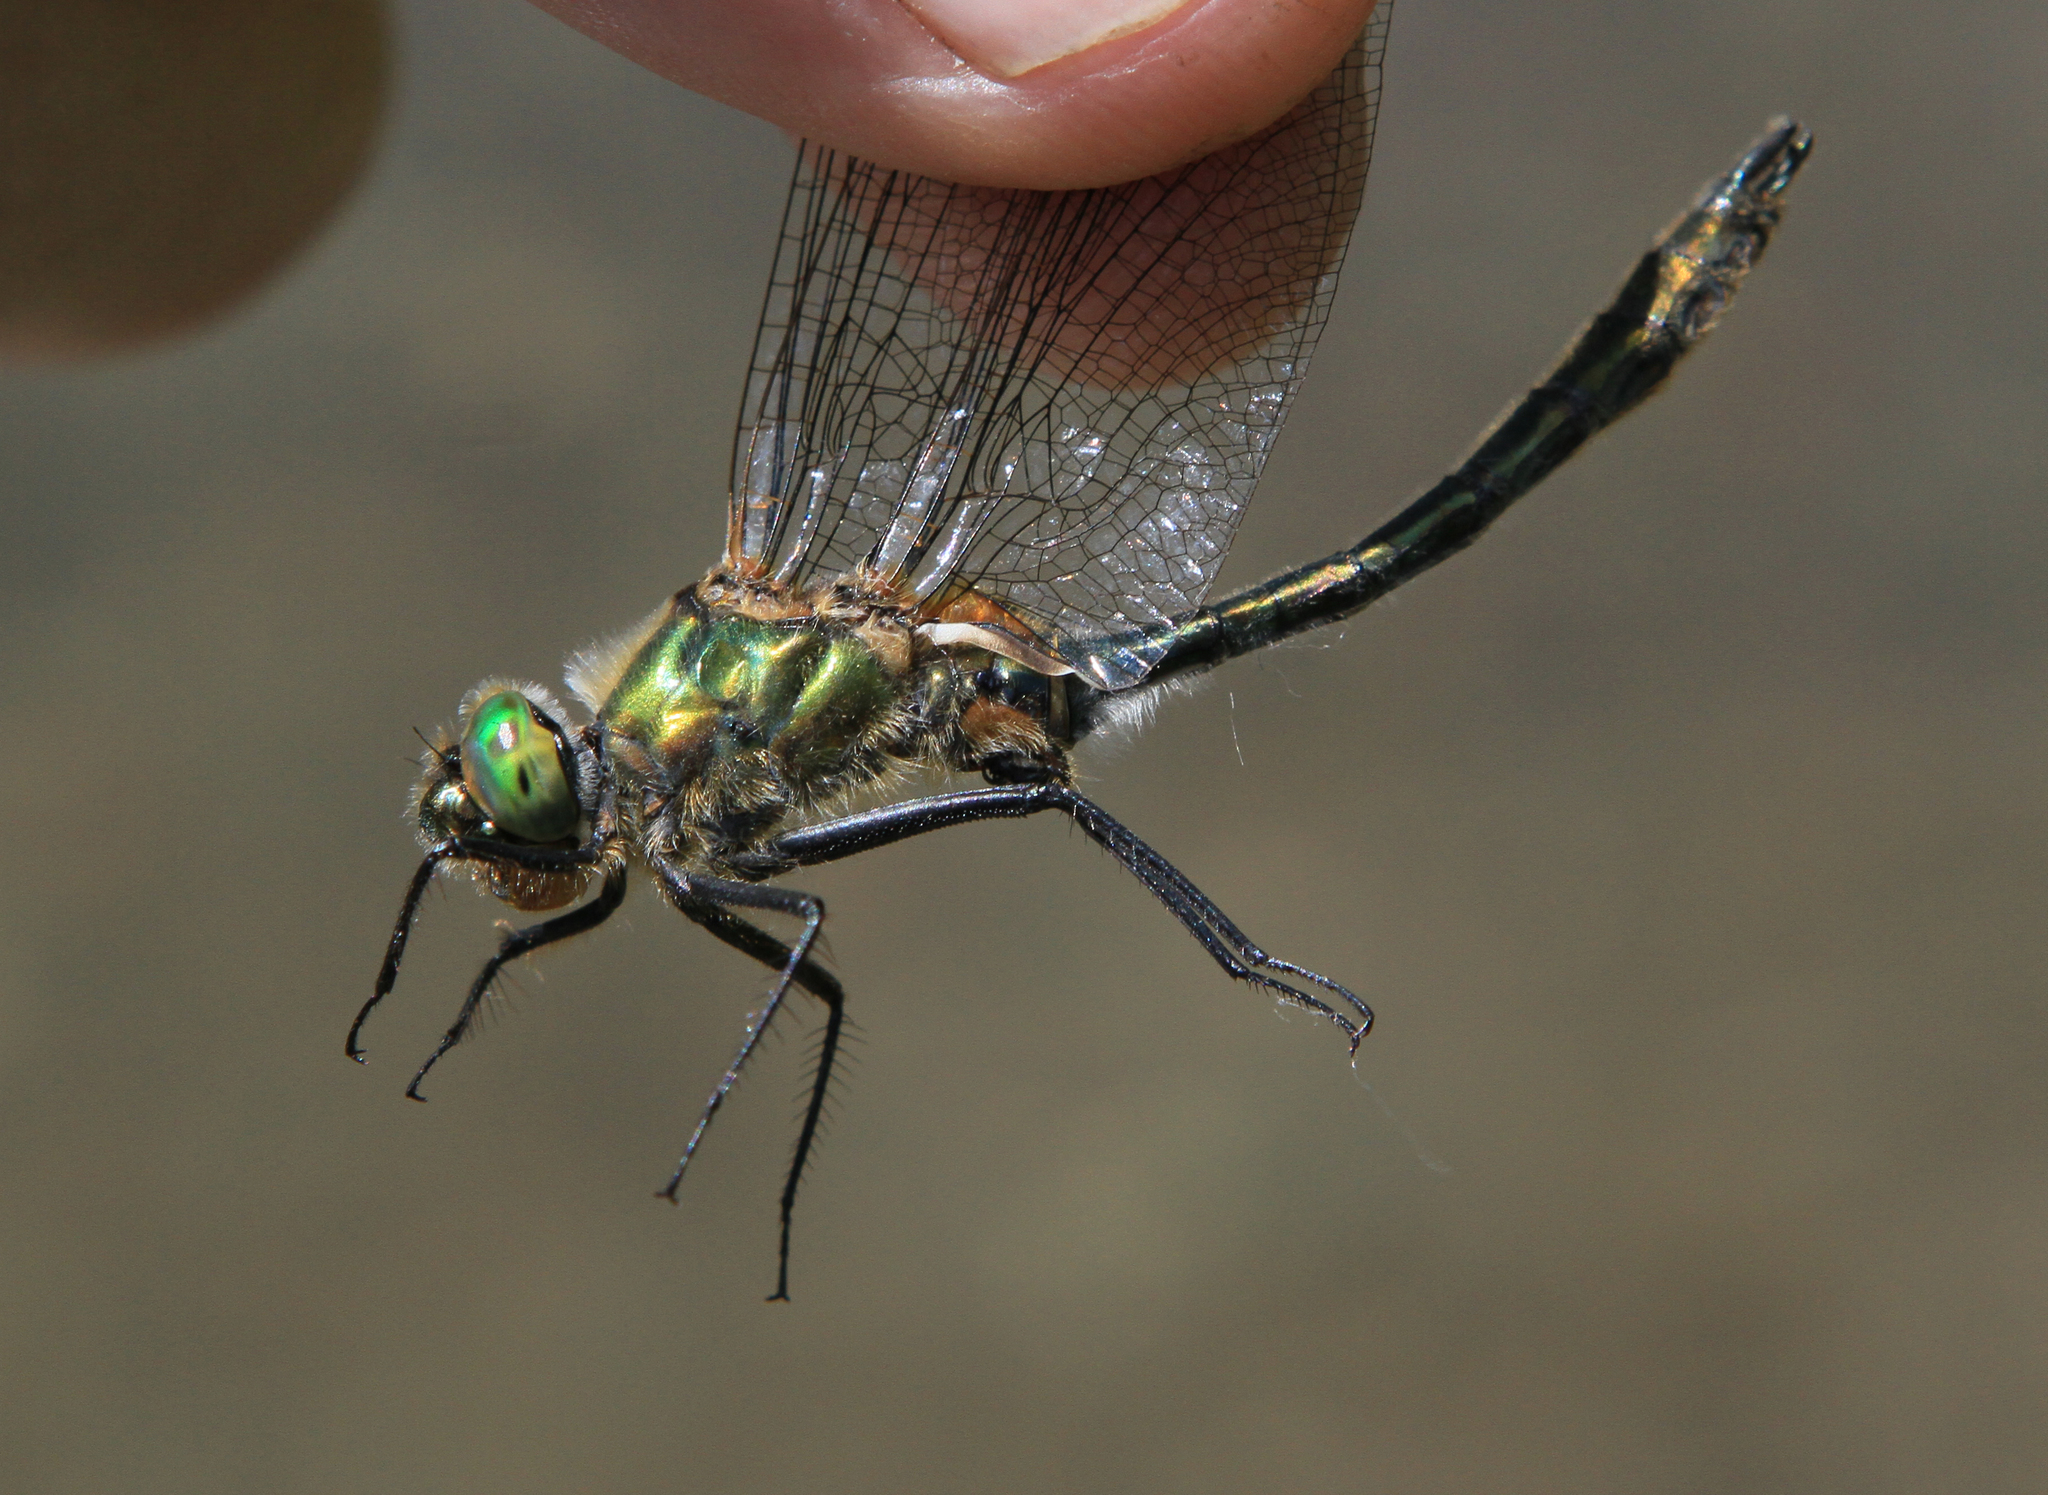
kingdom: Animalia
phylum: Arthropoda
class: Insecta
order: Odonata
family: Corduliidae
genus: Cordulia
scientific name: Cordulia aenea
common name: Downy emerald
